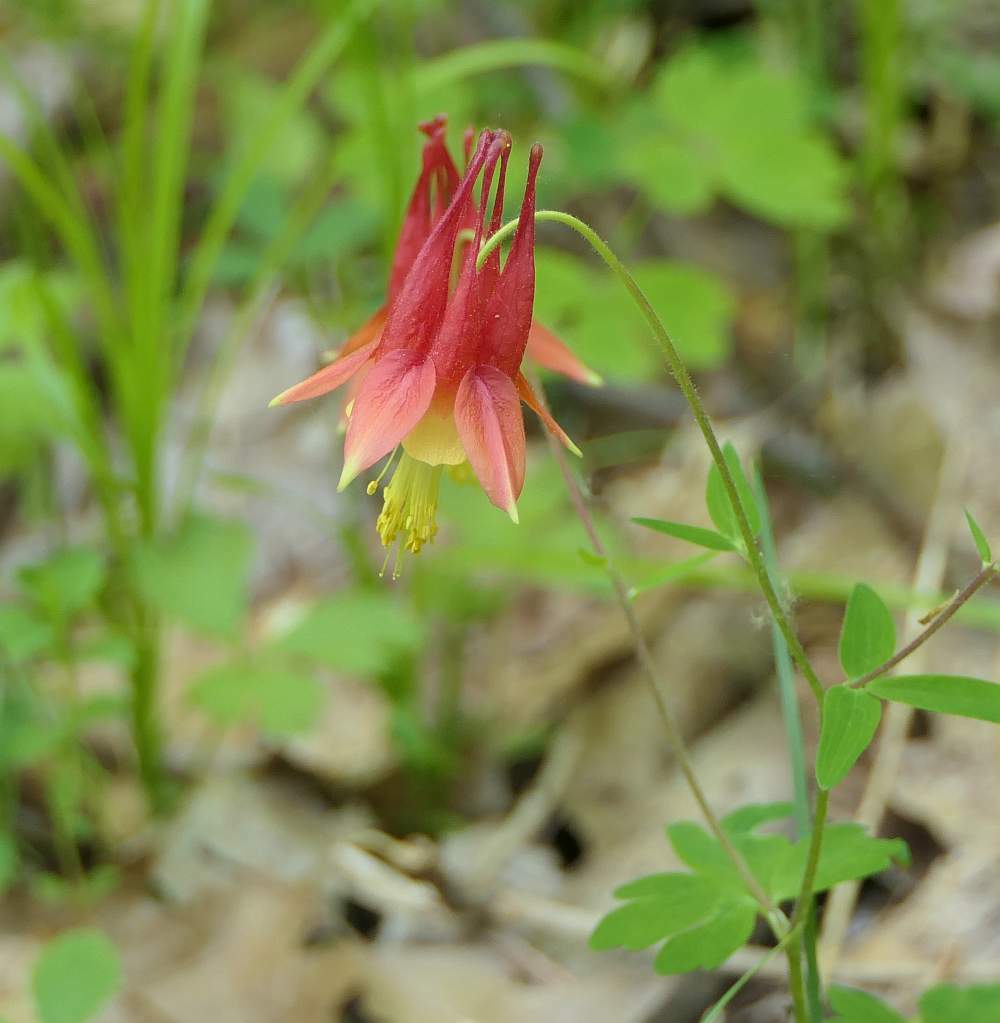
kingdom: Plantae
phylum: Tracheophyta
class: Magnoliopsida
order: Ranunculales
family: Ranunculaceae
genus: Aquilegia
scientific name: Aquilegia canadensis
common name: American columbine
